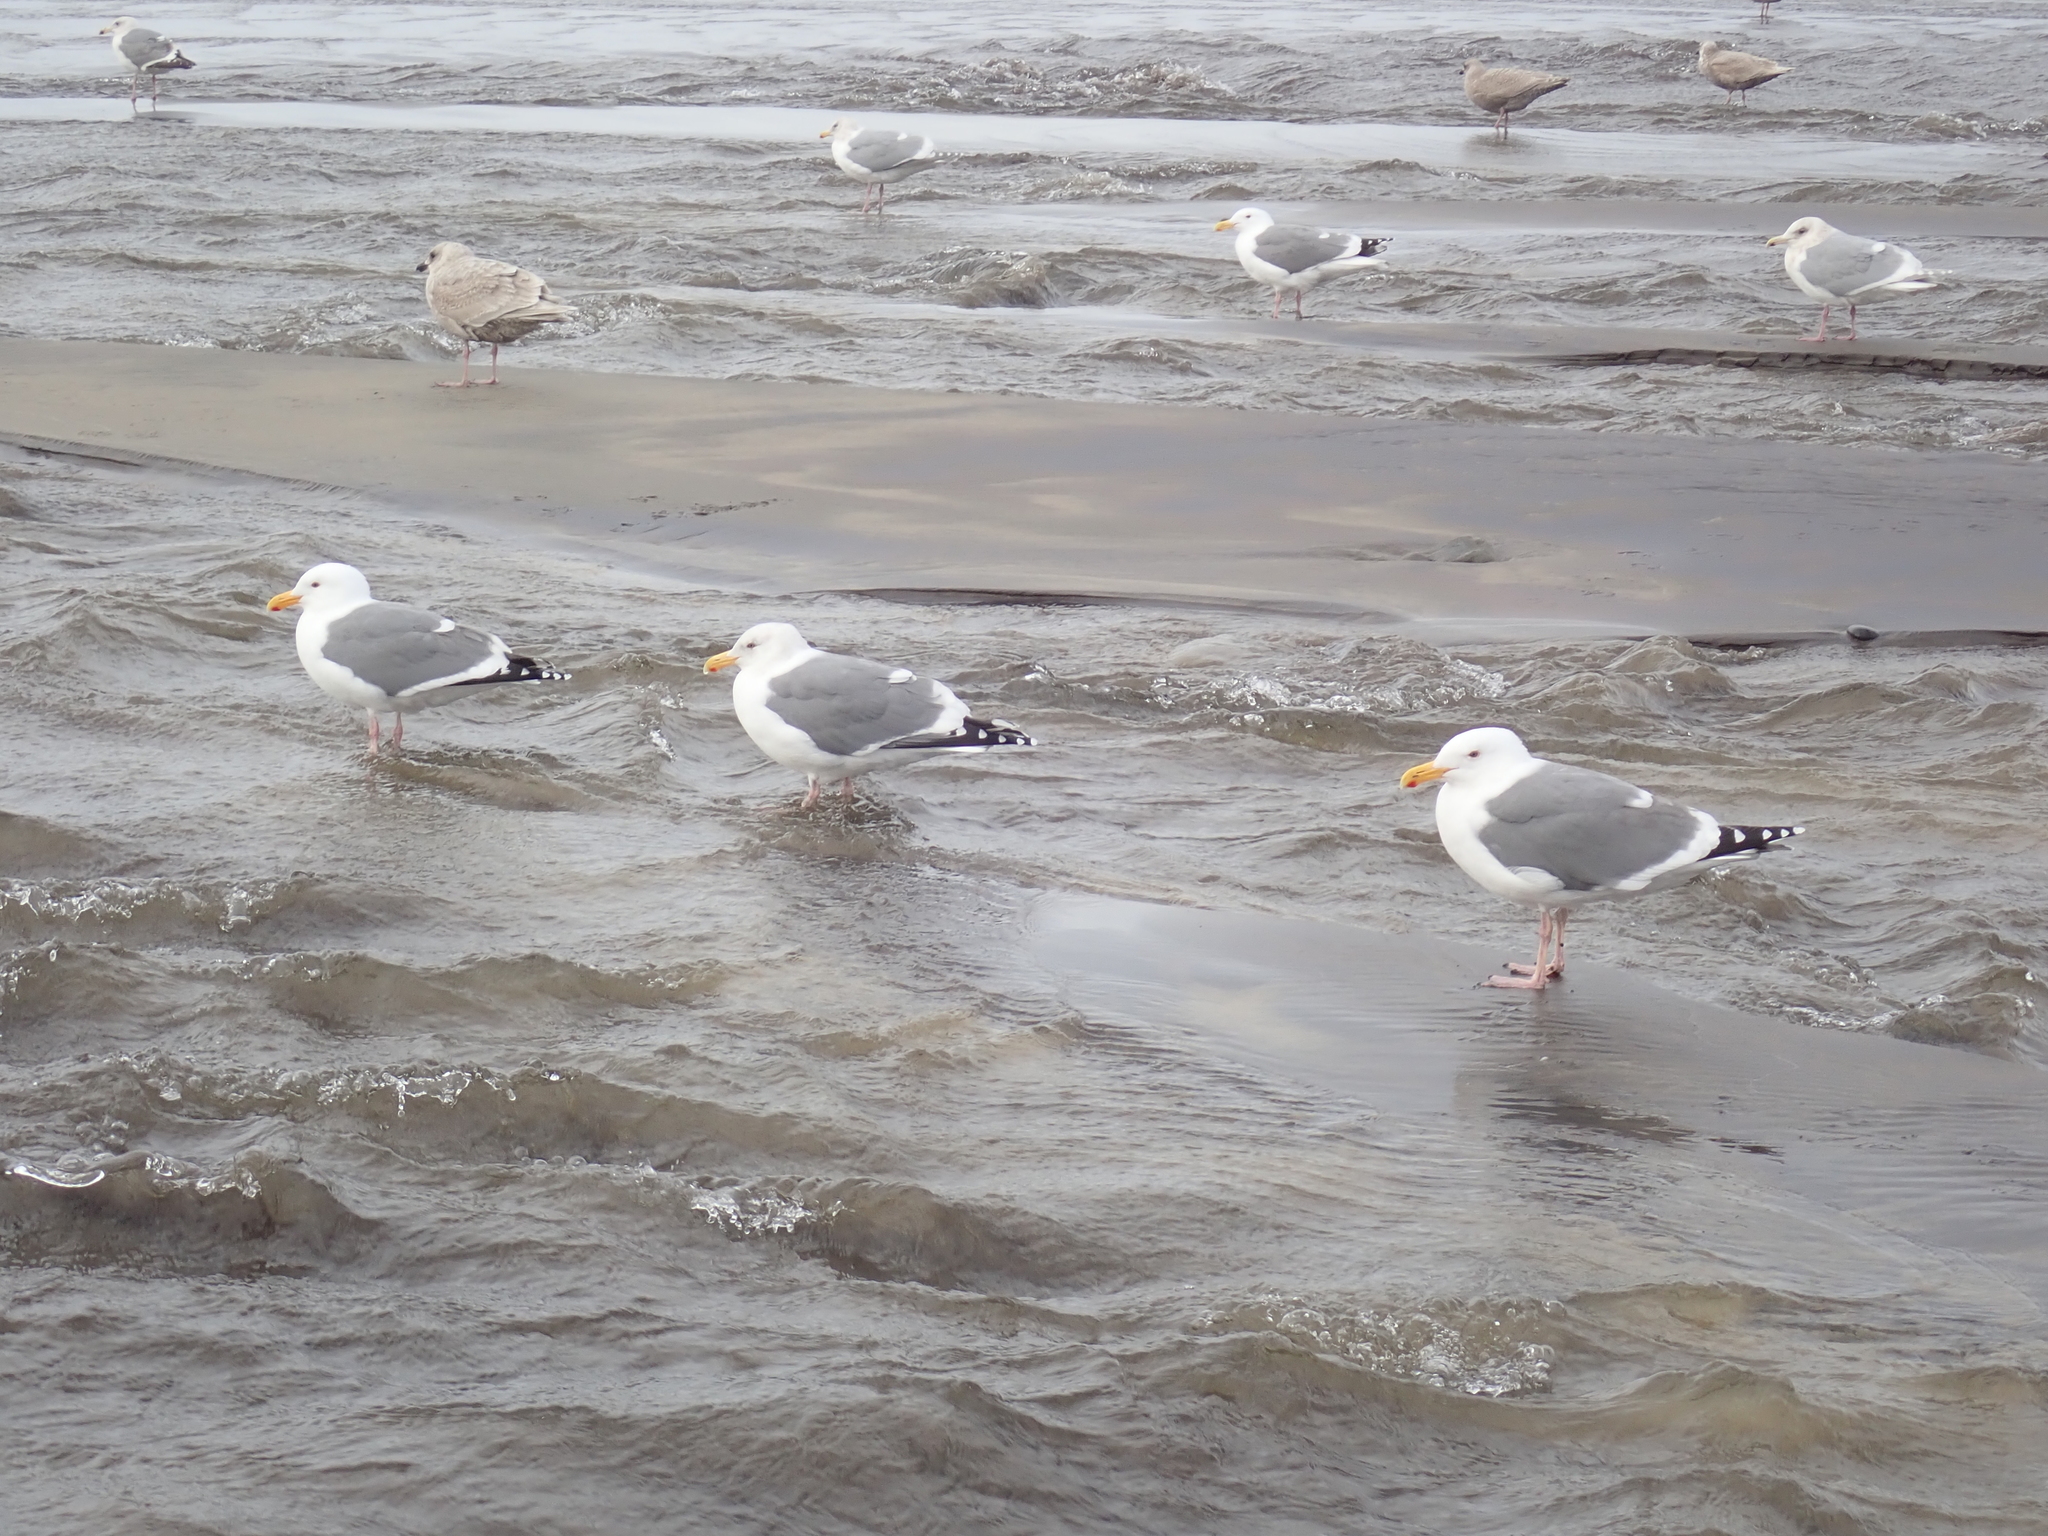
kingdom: Animalia
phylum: Chordata
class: Aves
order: Charadriiformes
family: Laridae
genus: Larus
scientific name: Larus occidentalis
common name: Western gull
